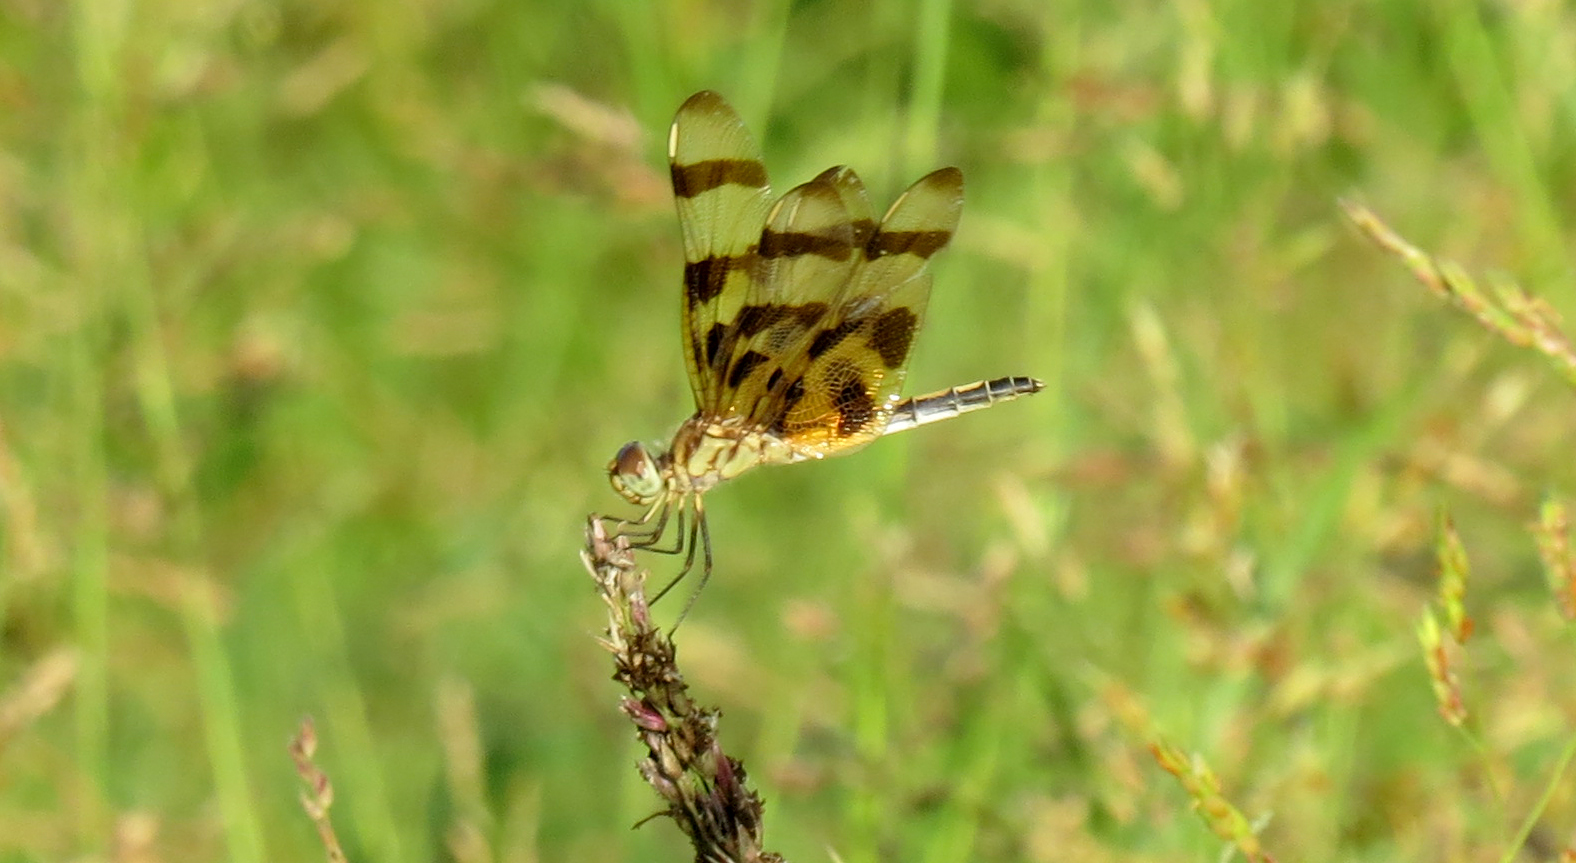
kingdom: Animalia
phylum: Arthropoda
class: Insecta
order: Odonata
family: Libellulidae
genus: Celithemis
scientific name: Celithemis eponina
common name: Halloween pennant
